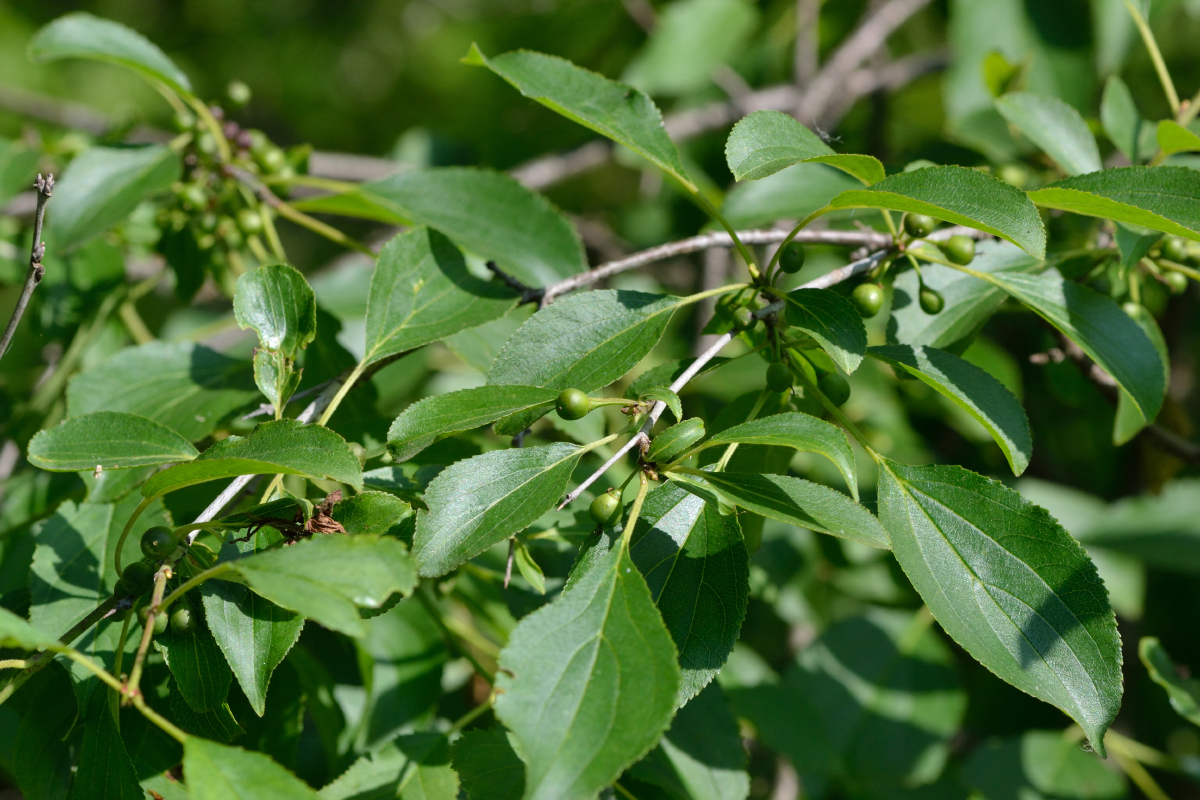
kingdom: Plantae
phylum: Tracheophyta
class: Magnoliopsida
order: Rosales
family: Rhamnaceae
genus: Rhamnus
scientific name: Rhamnus cathartica
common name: Common buckthorn
